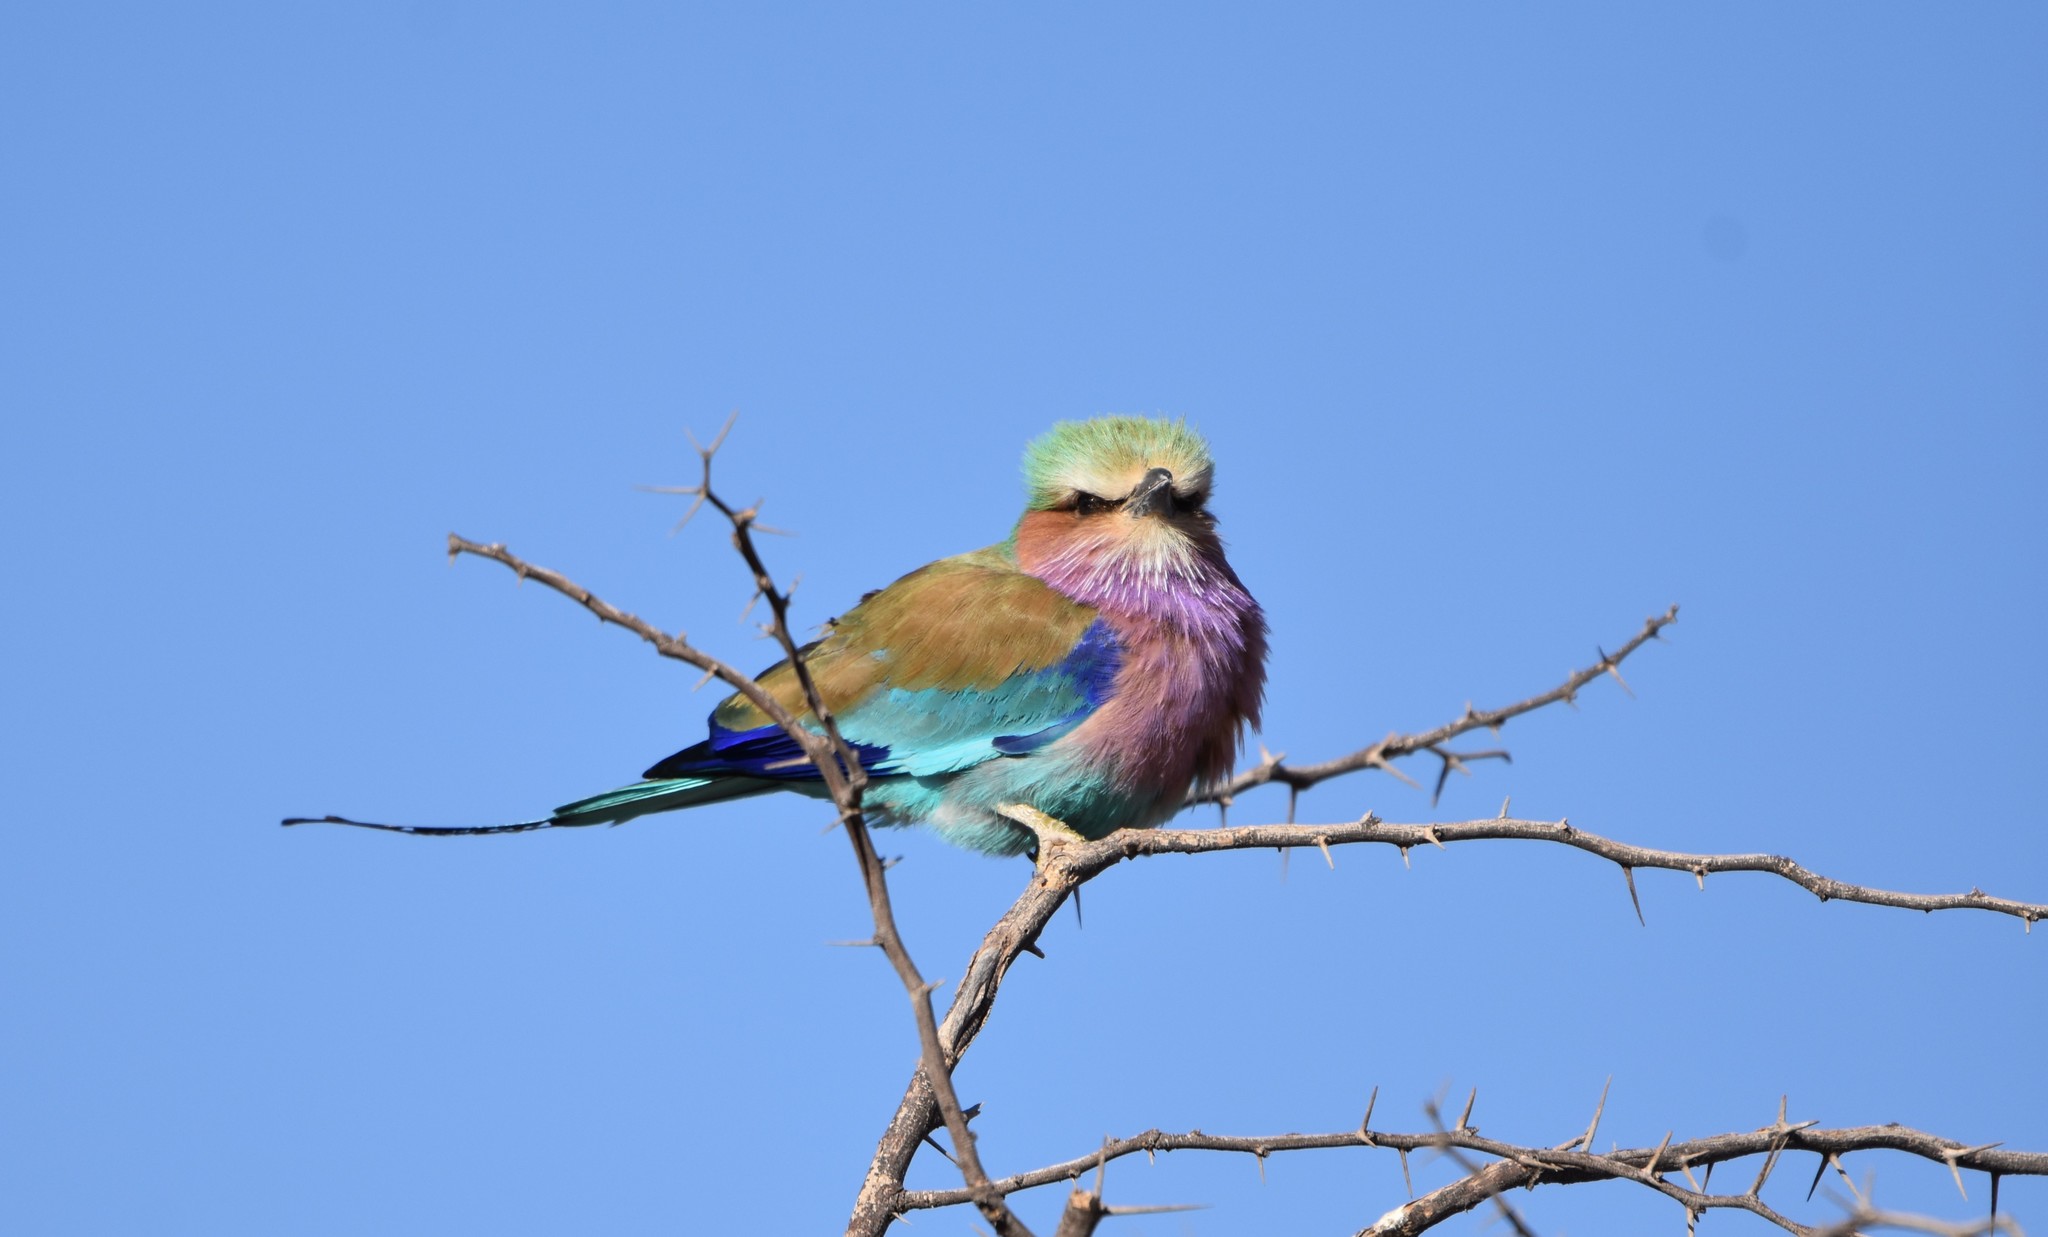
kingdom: Animalia
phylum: Chordata
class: Aves
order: Coraciiformes
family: Coraciidae
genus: Coracias
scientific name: Coracias caudatus
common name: Lilac-breasted roller
